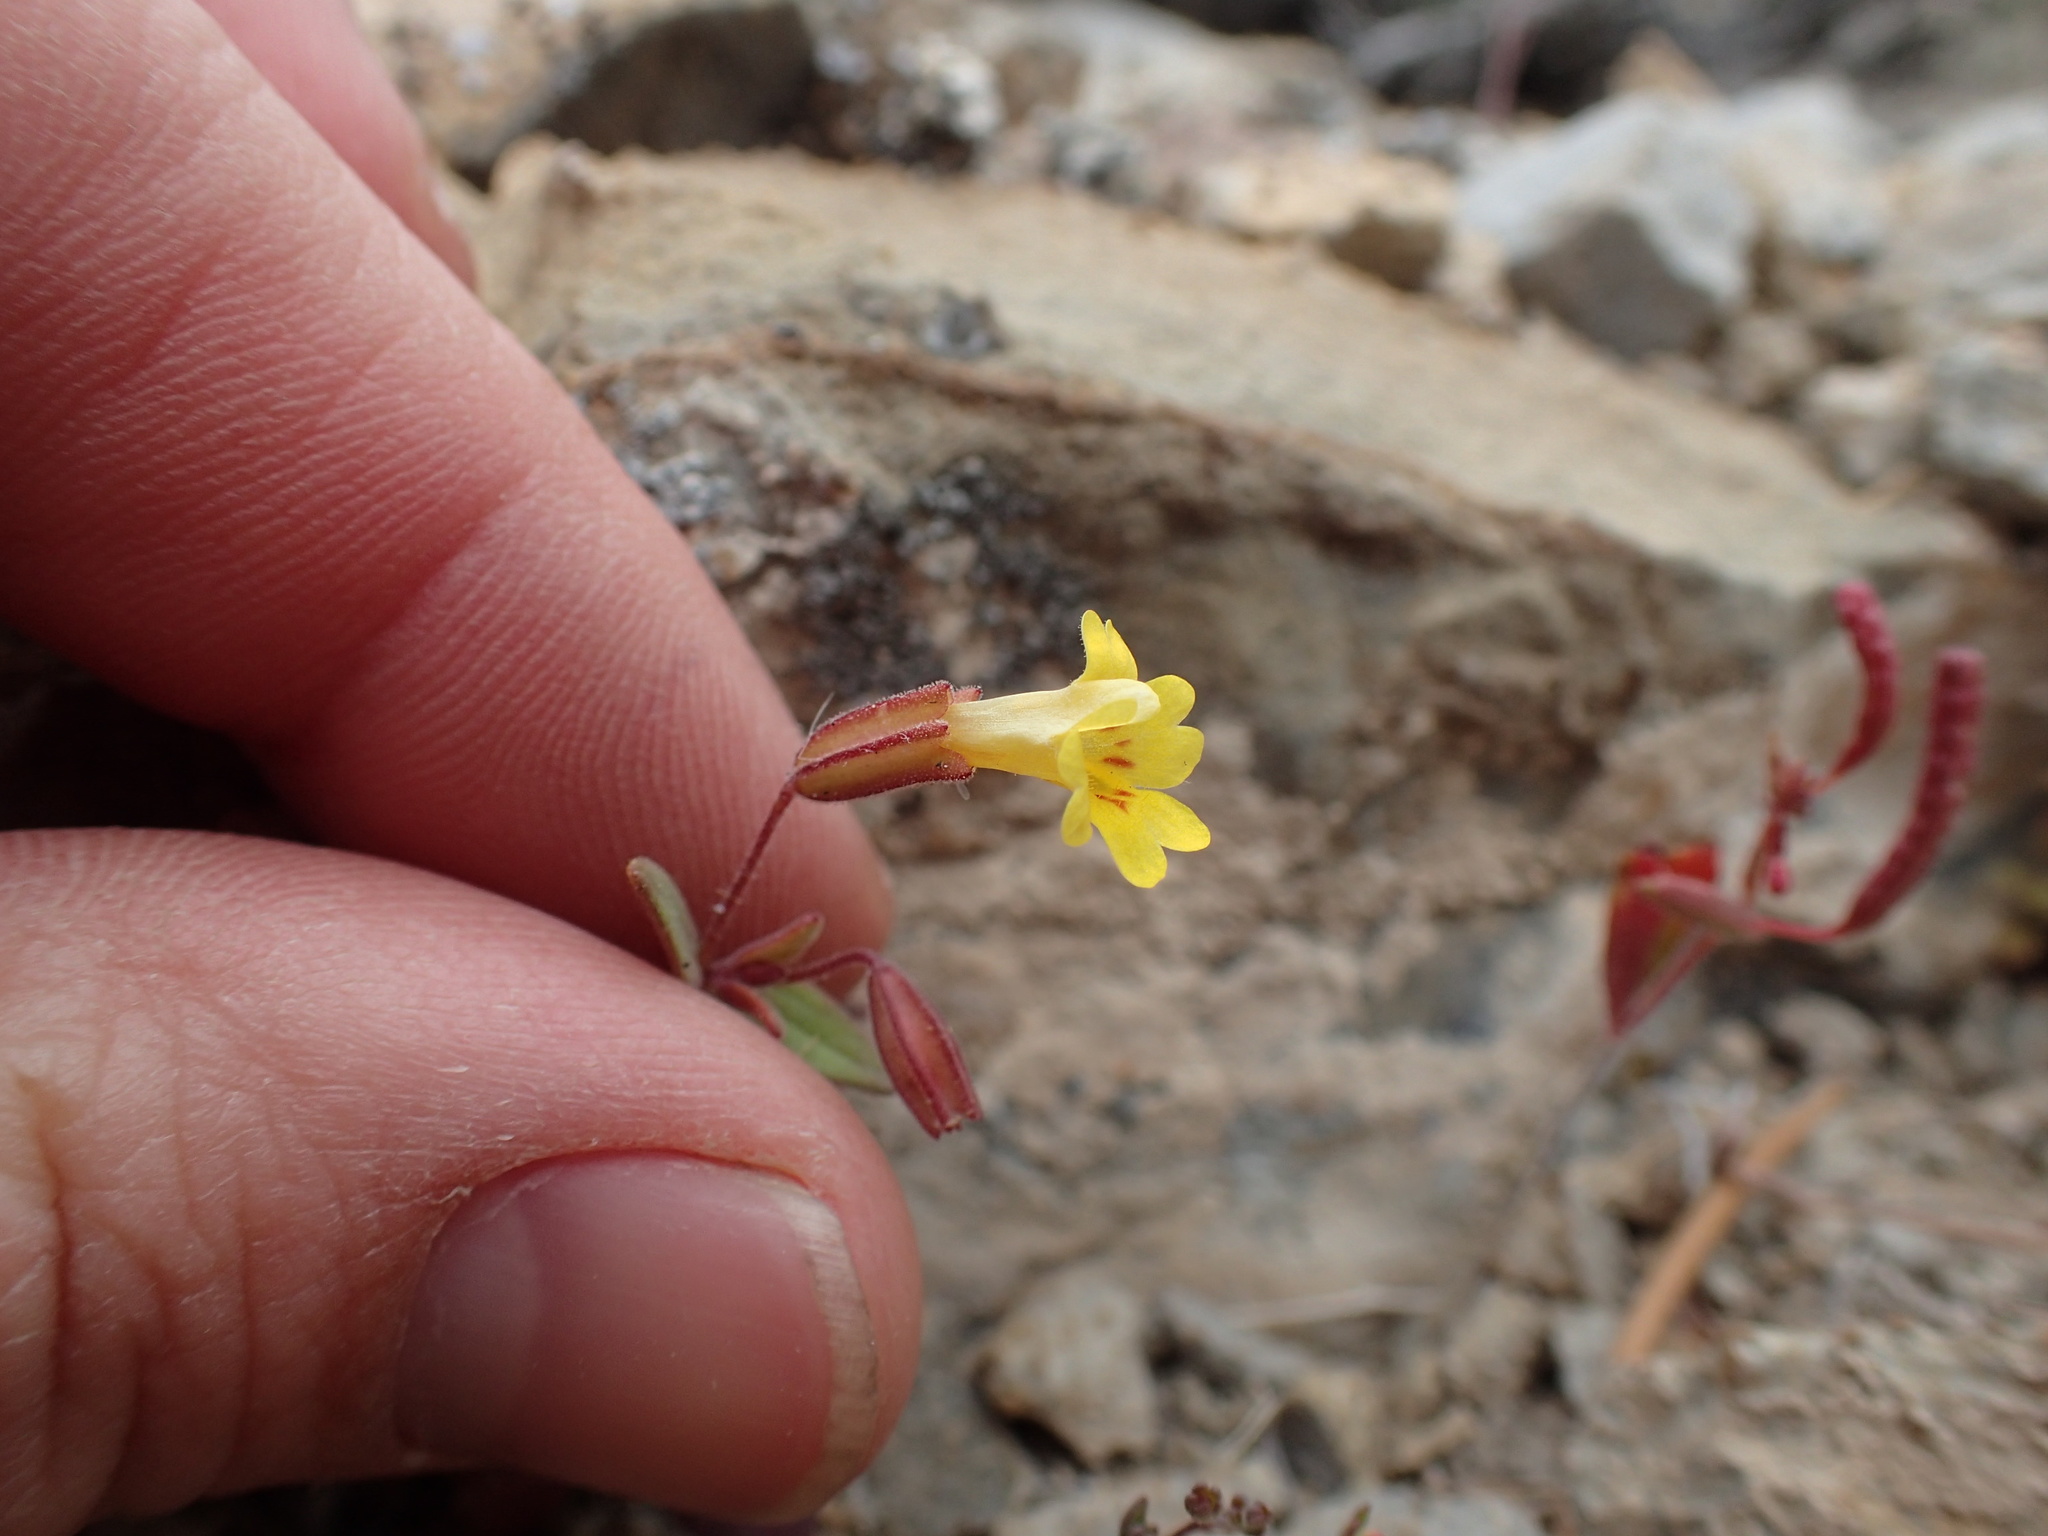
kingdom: Plantae
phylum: Tracheophyta
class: Magnoliopsida
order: Lamiales
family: Phrymaceae
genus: Erythranthe
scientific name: Erythranthe calcicola
